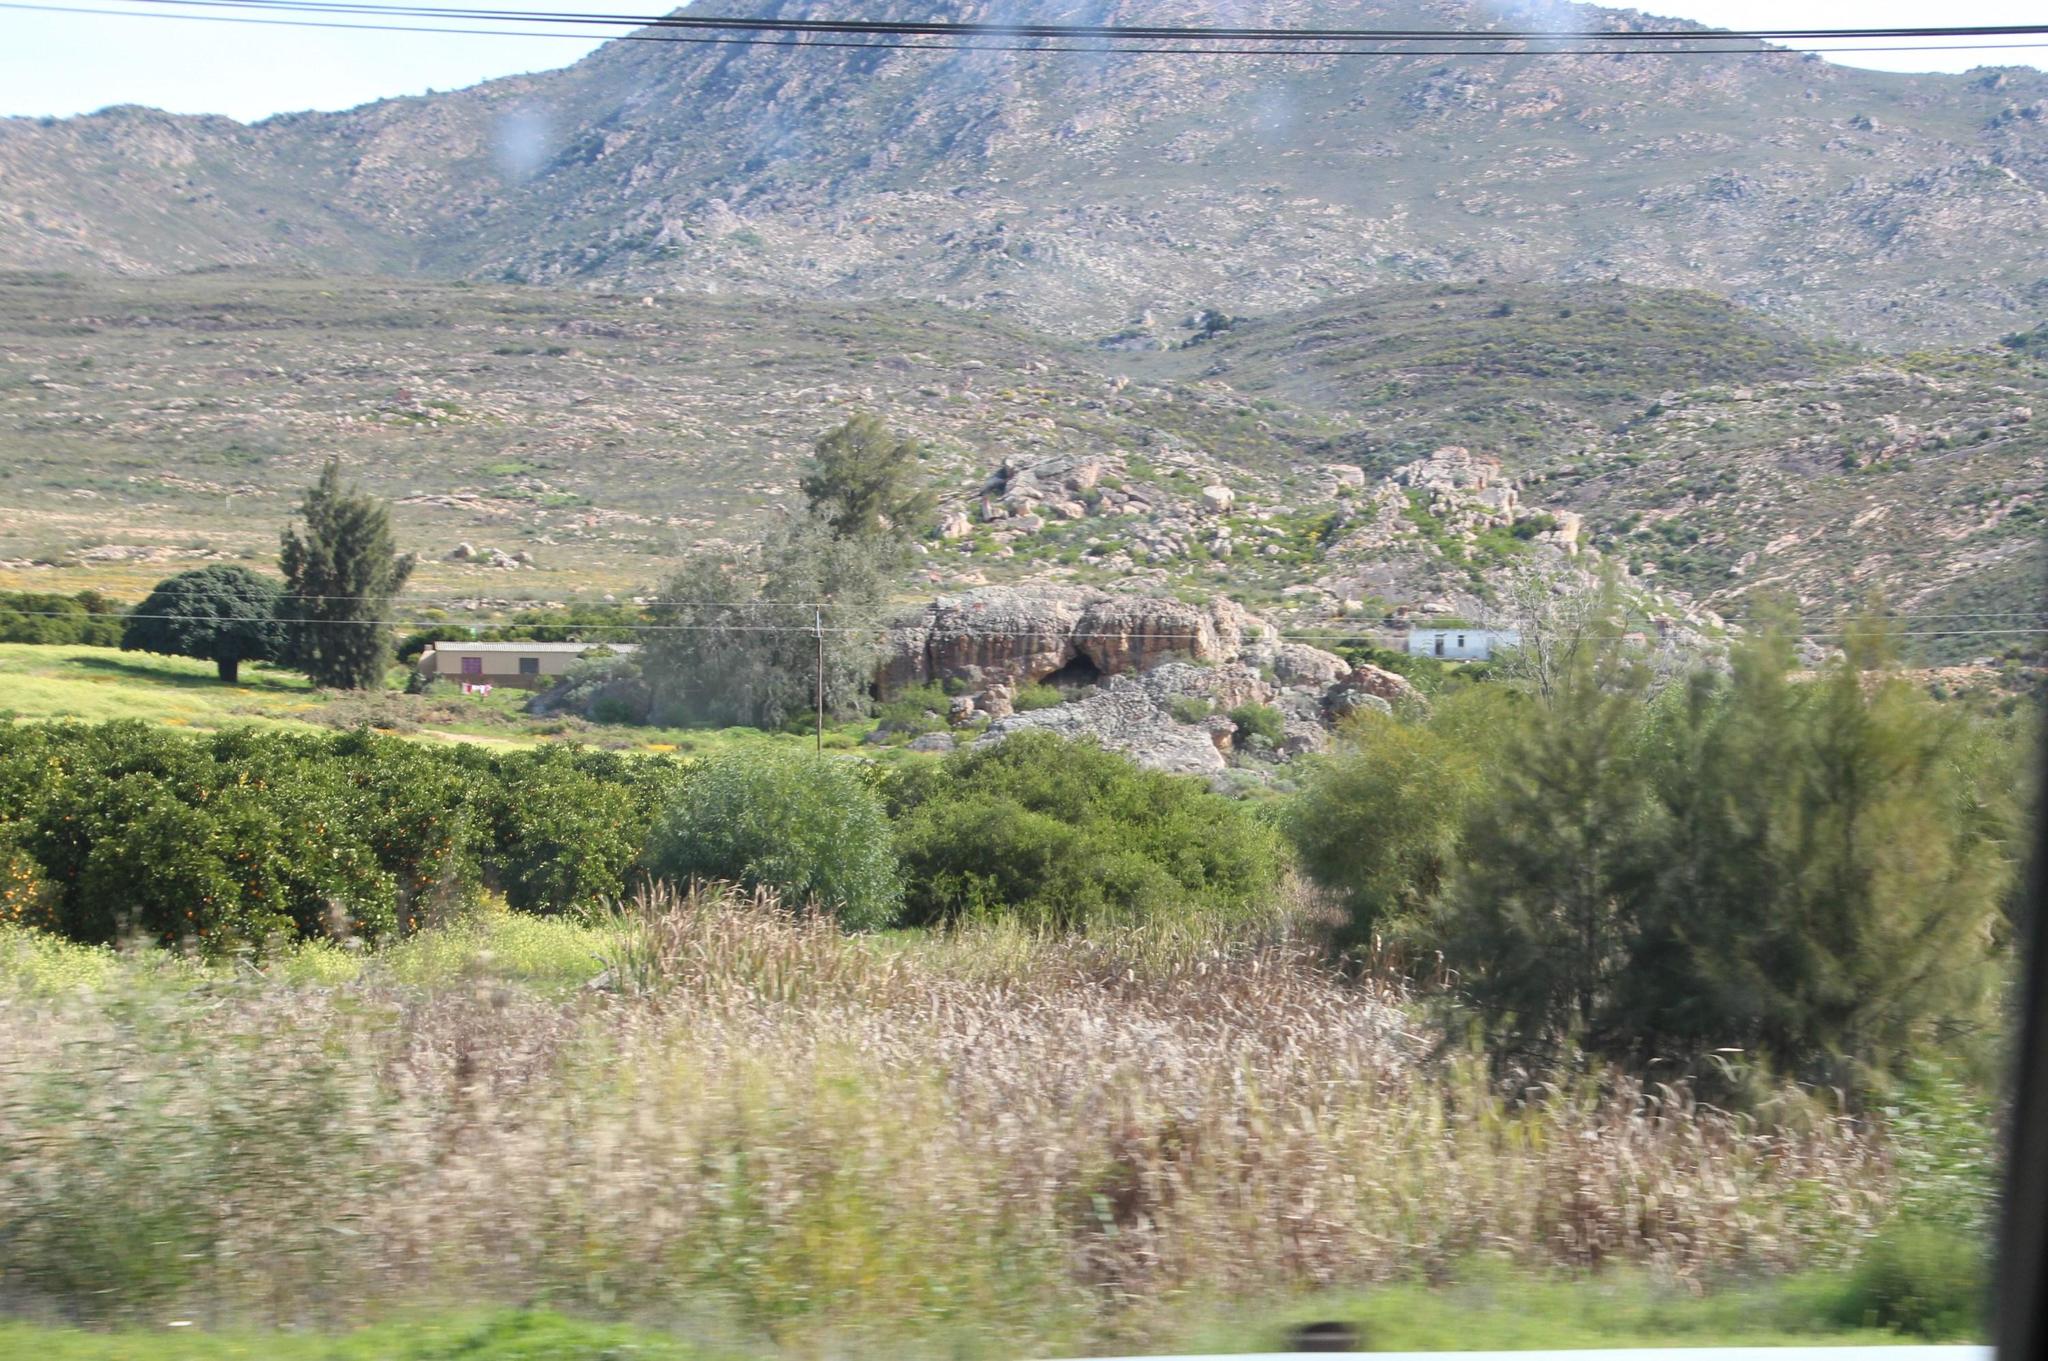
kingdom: Plantae
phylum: Tracheophyta
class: Magnoliopsida
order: Fagales
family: Casuarinaceae
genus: Casuarina
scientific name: Casuarina cunninghamiana
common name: River sheoak
